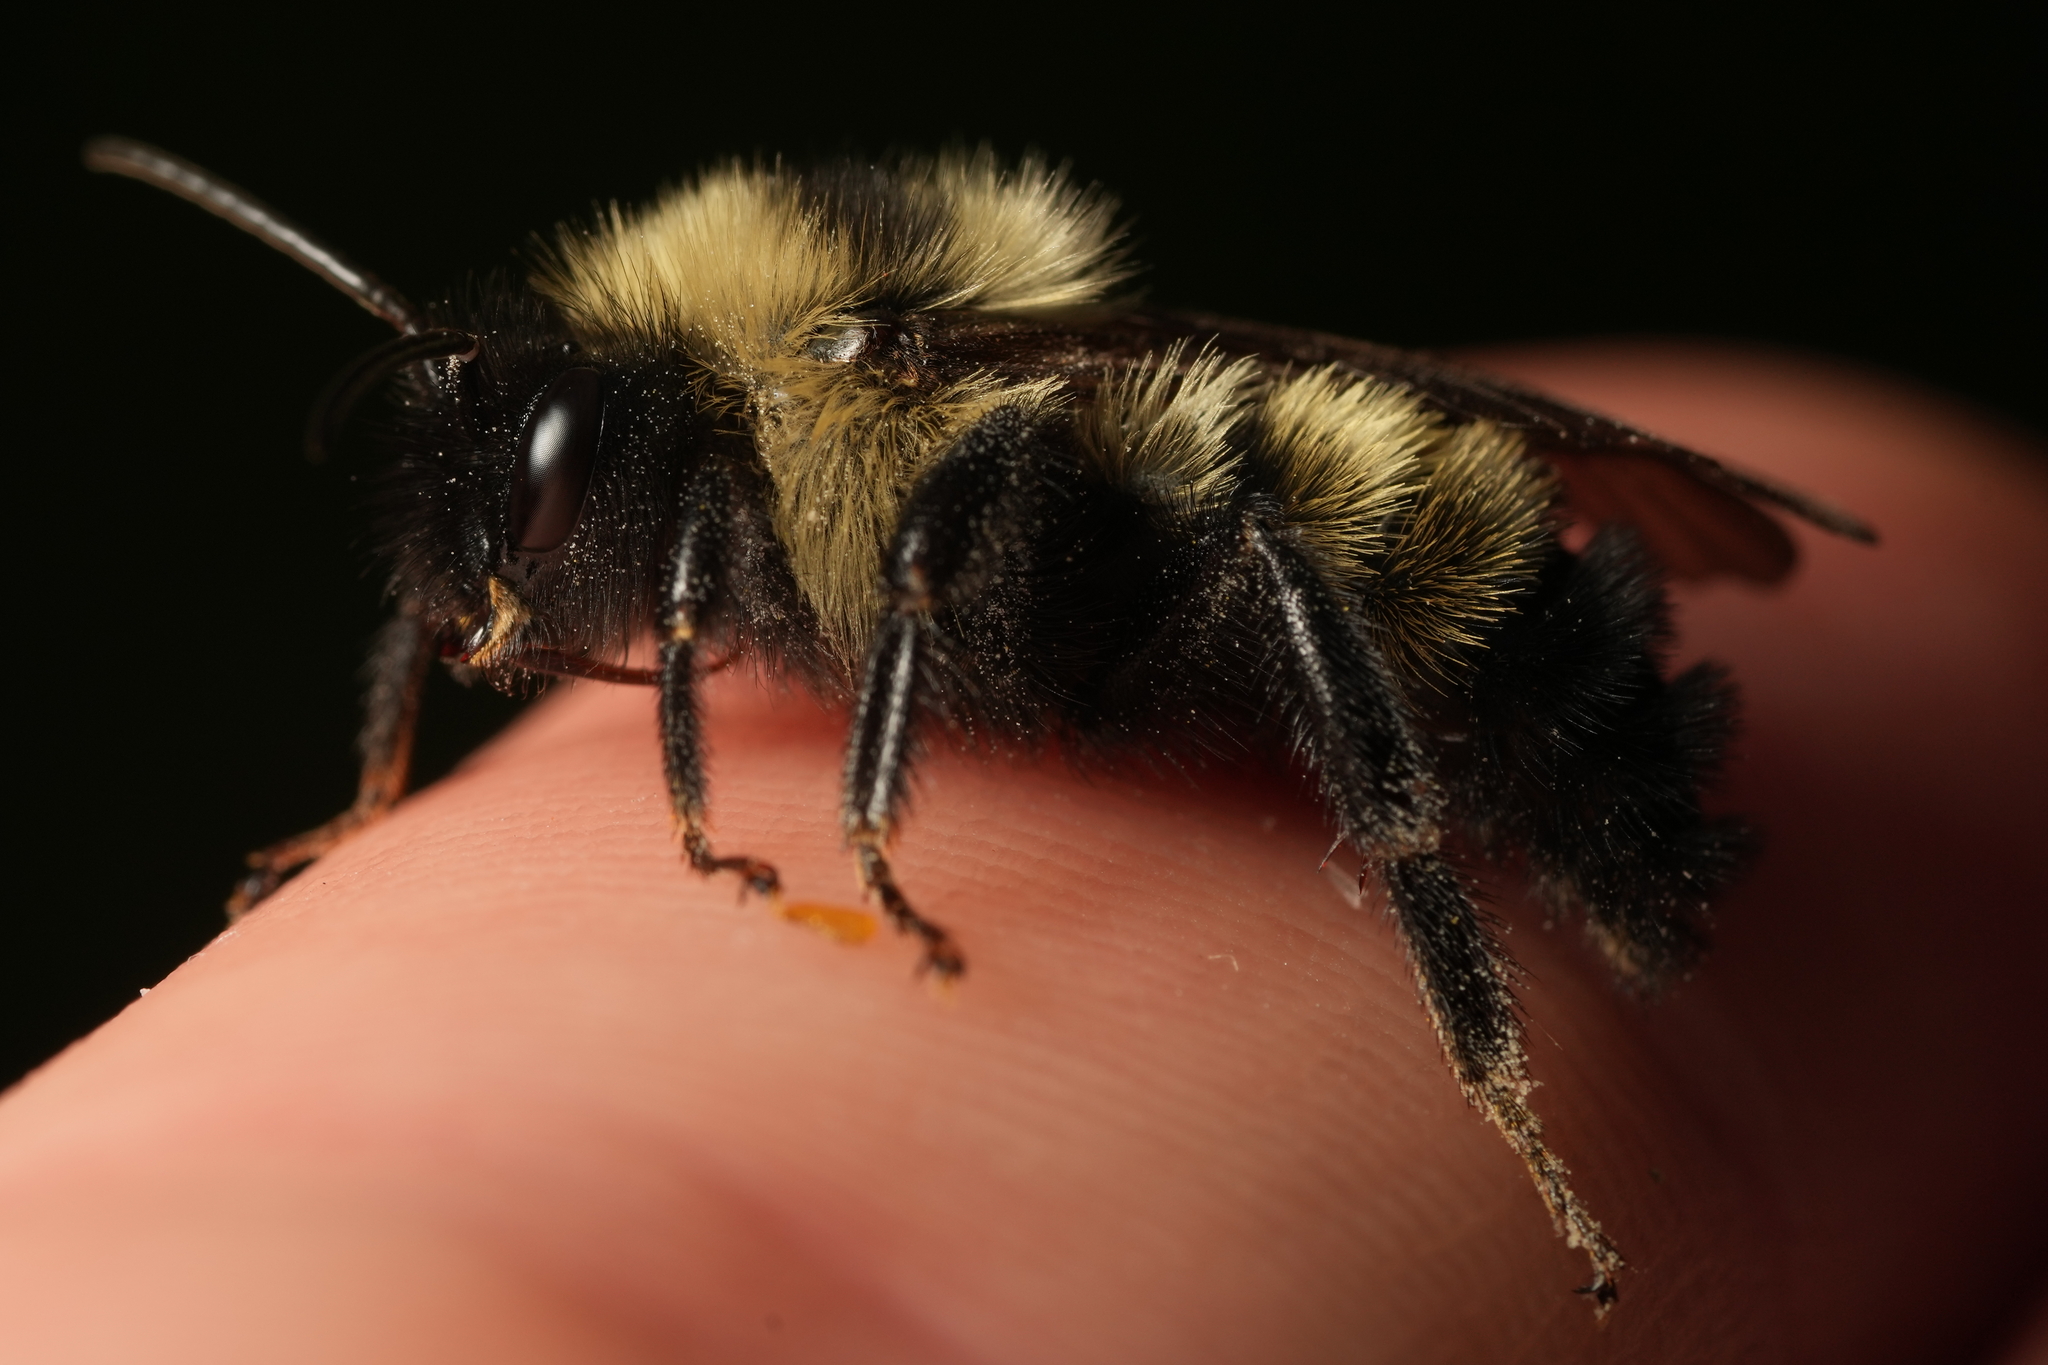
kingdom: Animalia
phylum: Arthropoda
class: Insecta
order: Hymenoptera
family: Apidae
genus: Bombus
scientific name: Bombus citrinus
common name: Lemon cuckoo bumble bee
